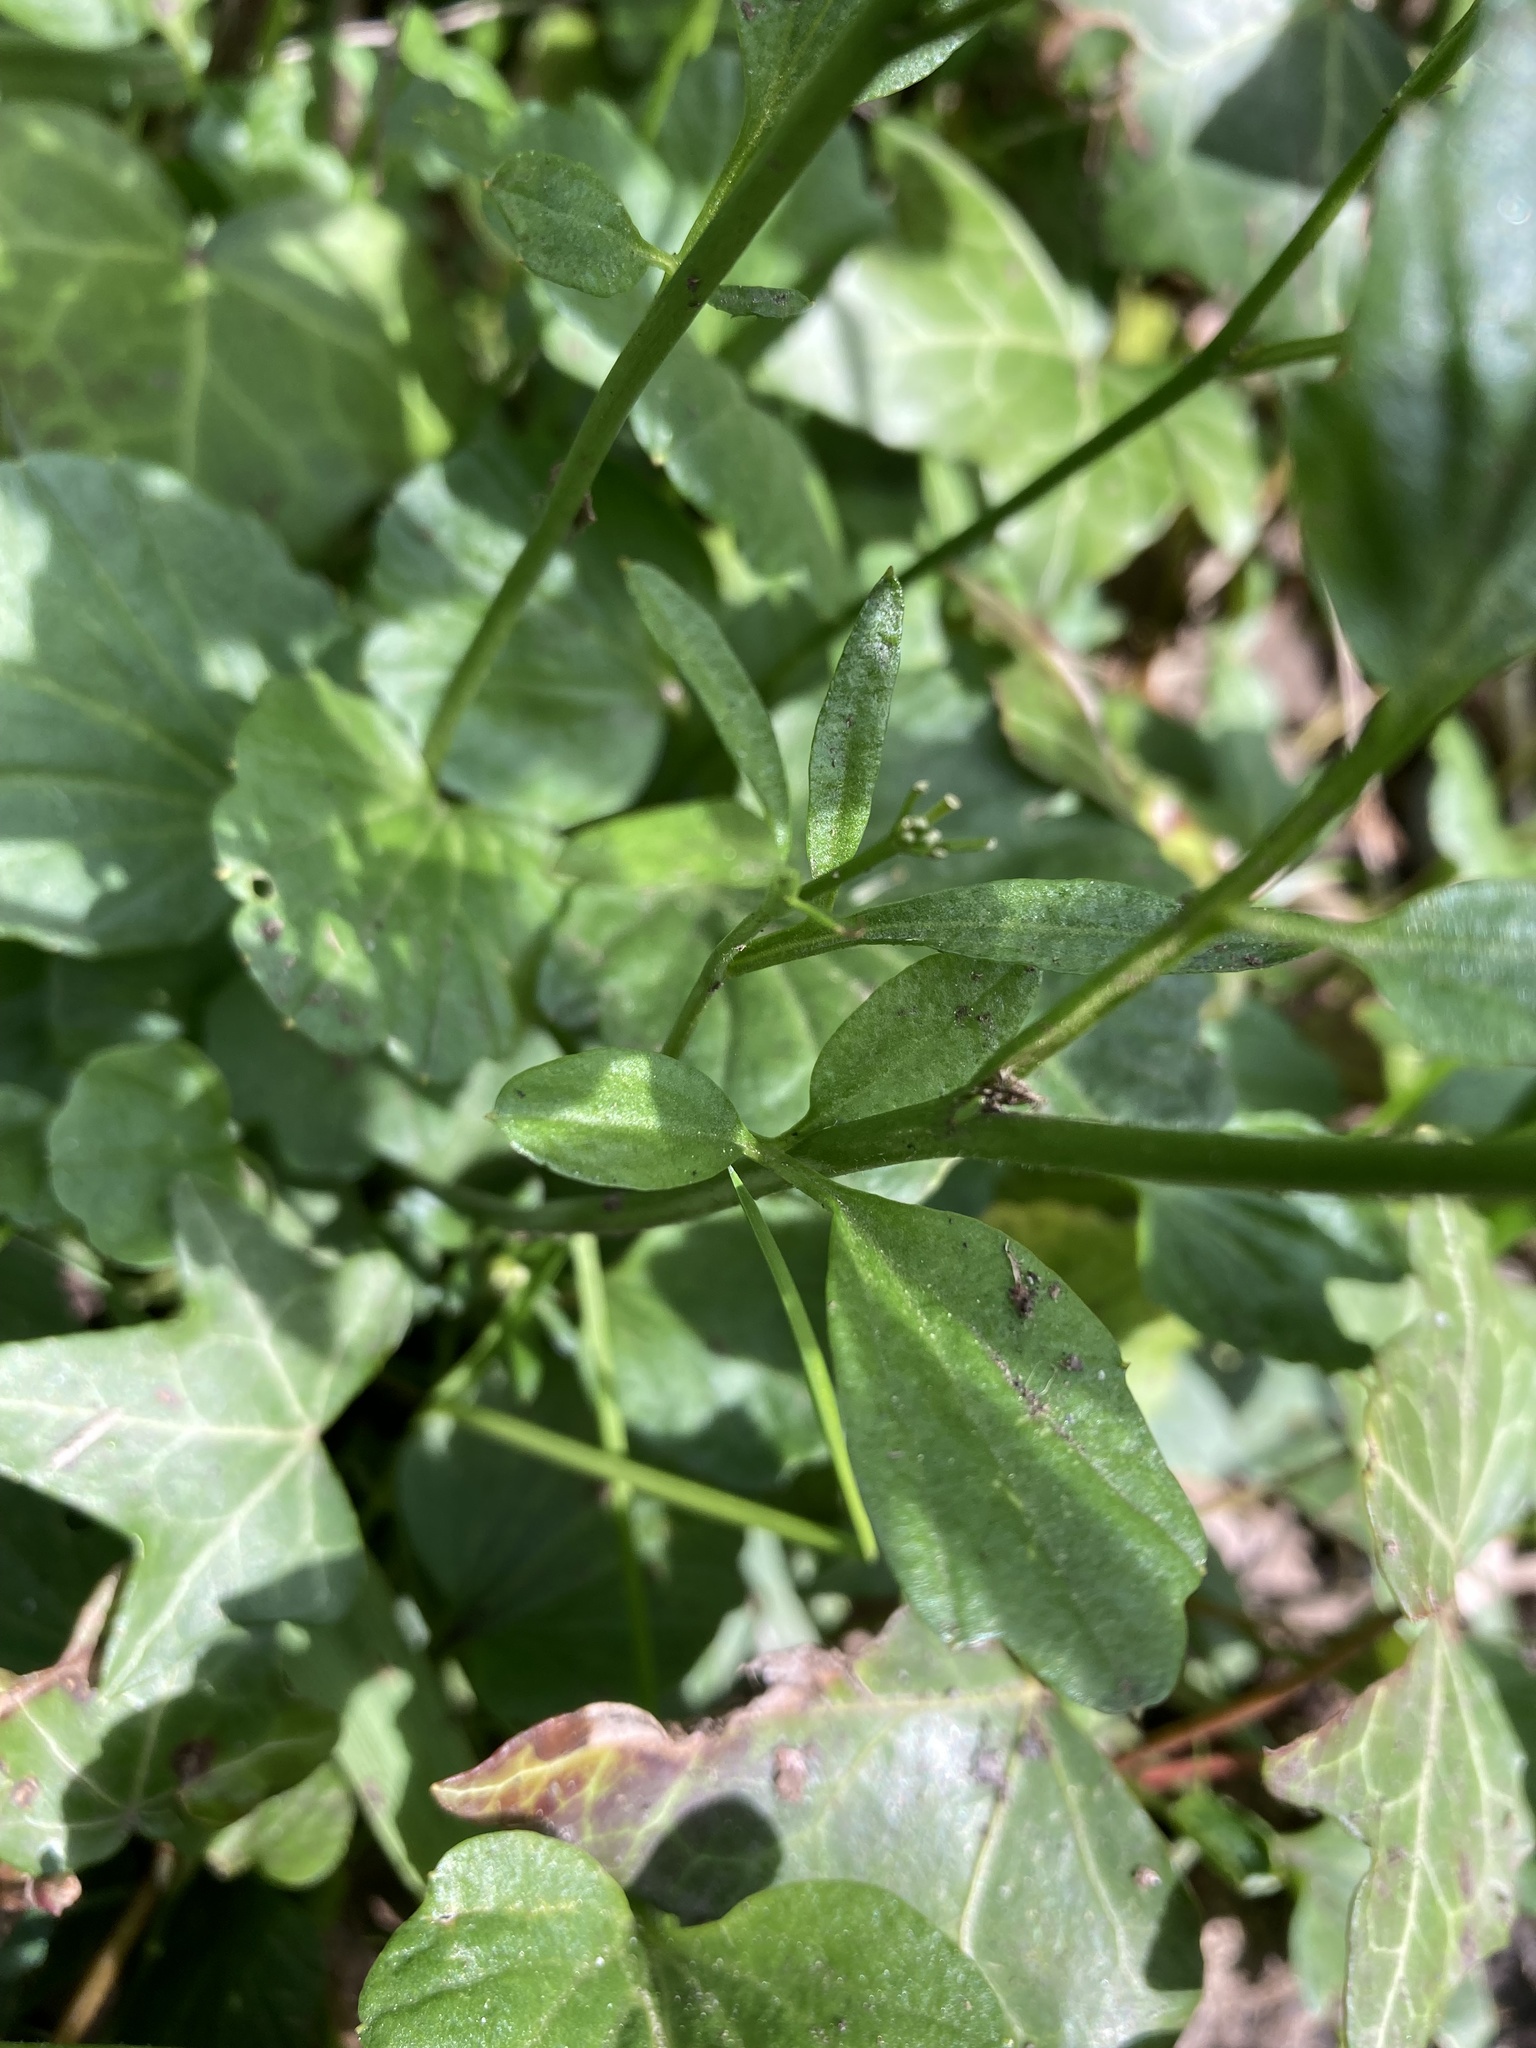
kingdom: Plantae
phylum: Tracheophyta
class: Magnoliopsida
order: Brassicales
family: Brassicaceae
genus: Cardamine
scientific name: Cardamine nuttallii
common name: Nuttall's toothwort
